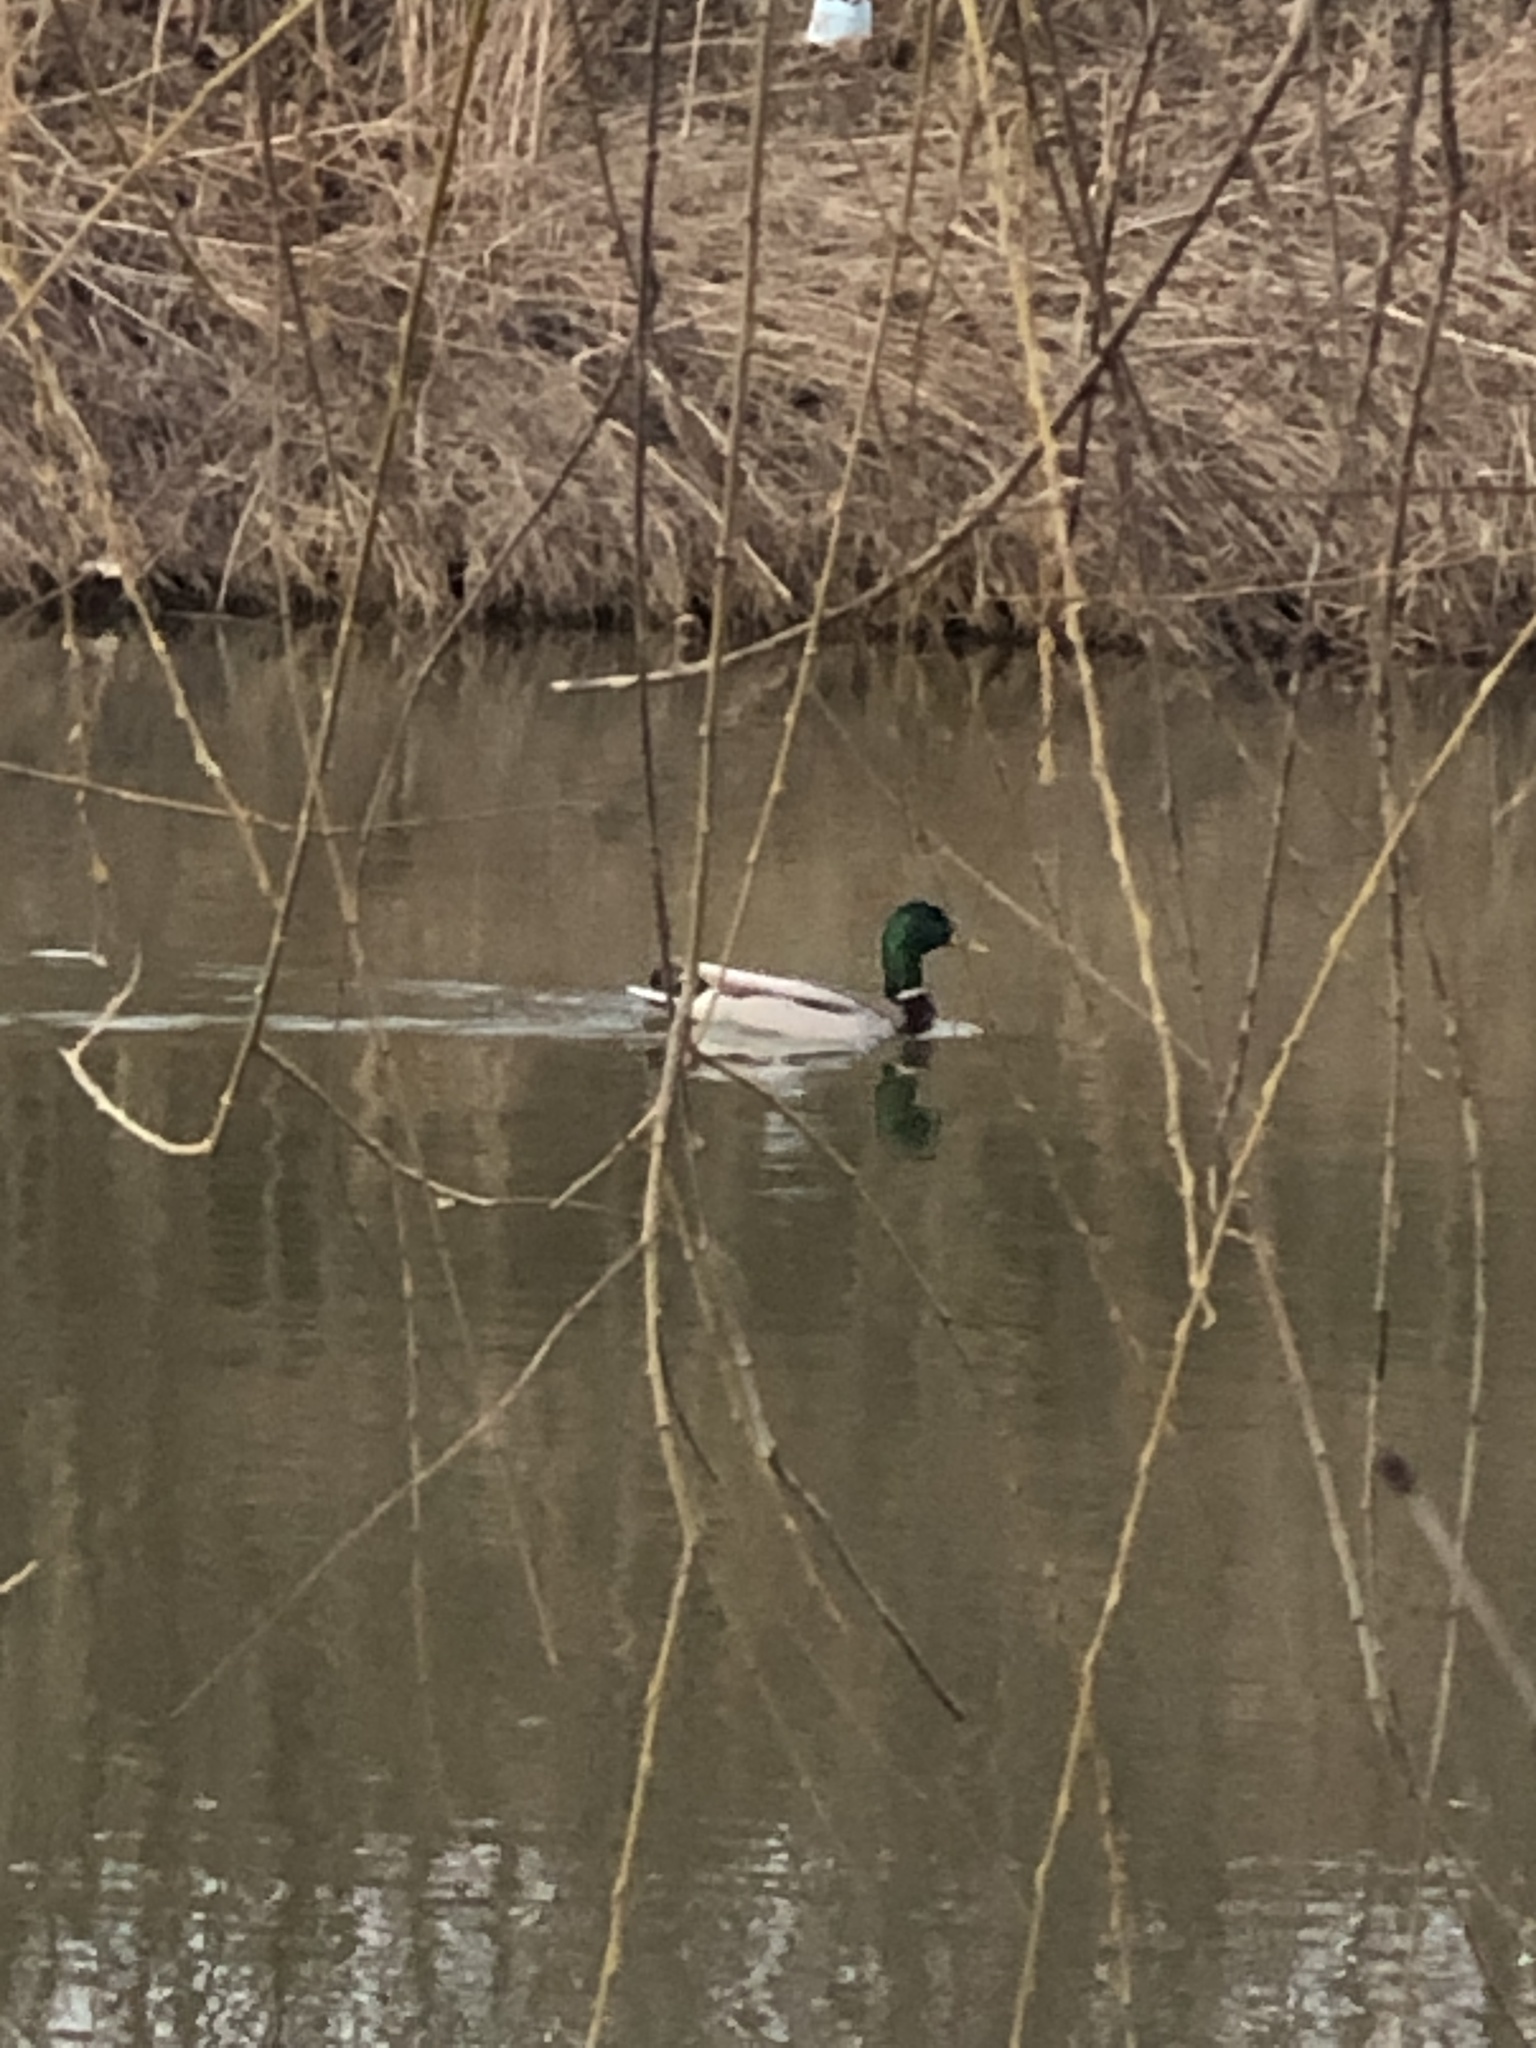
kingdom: Animalia
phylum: Chordata
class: Aves
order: Anseriformes
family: Anatidae
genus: Anas
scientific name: Anas platyrhynchos
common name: Mallard
